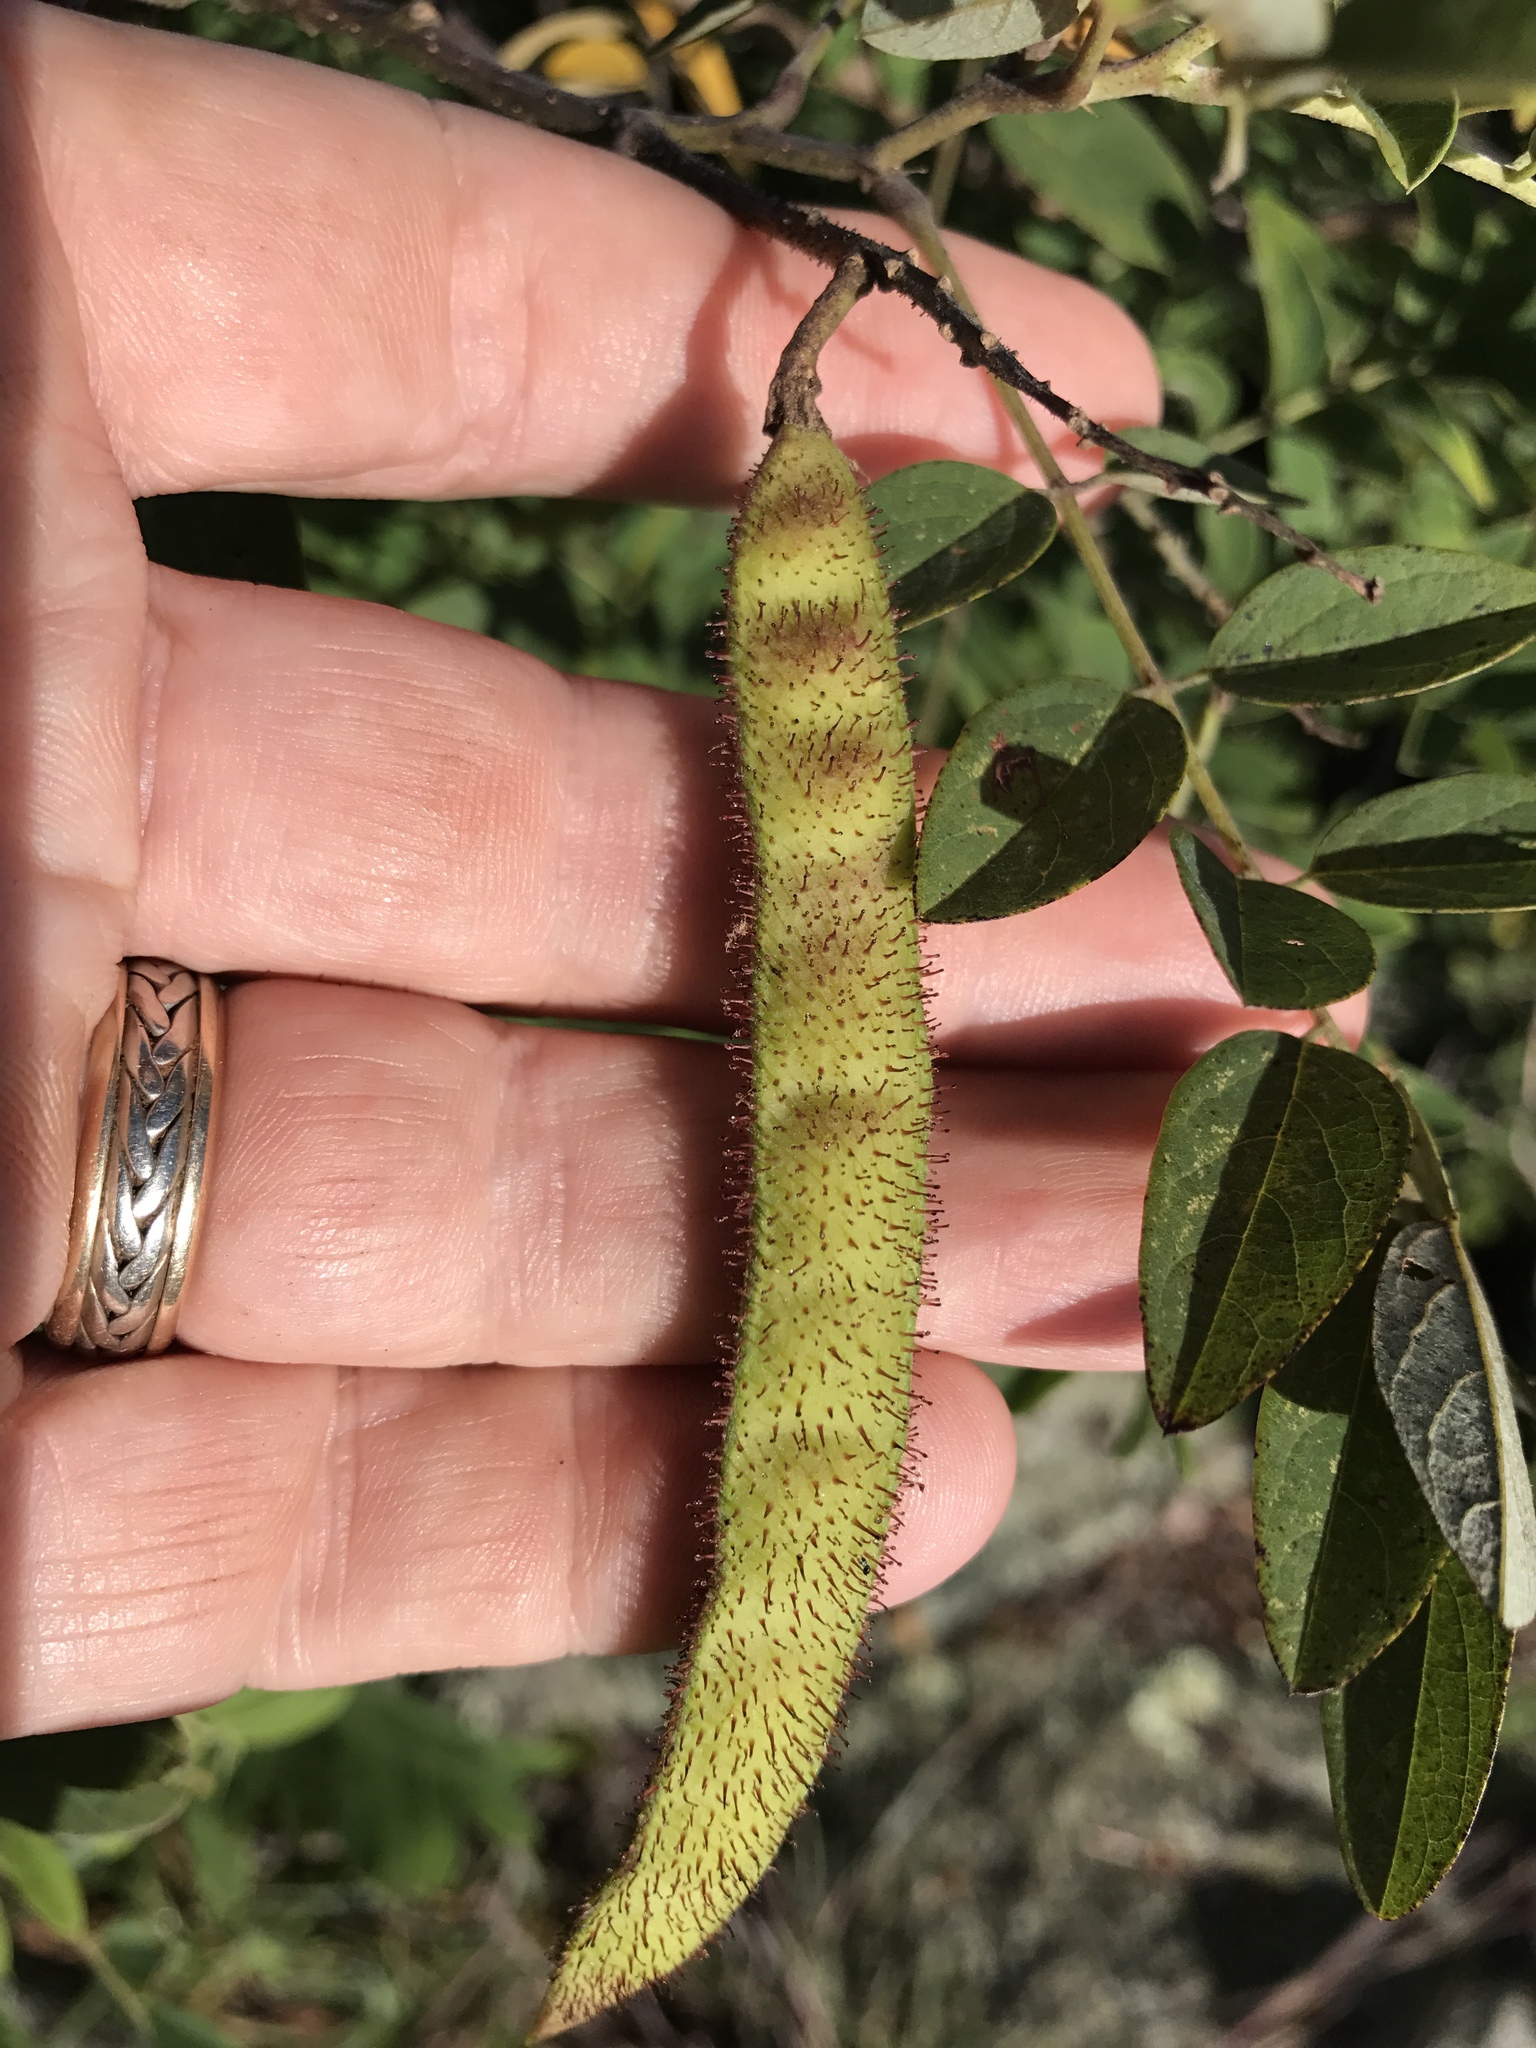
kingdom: Plantae
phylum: Tracheophyta
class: Magnoliopsida
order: Fabales
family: Fabaceae
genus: Robinia
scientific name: Robinia viscosa
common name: Clammy locust
